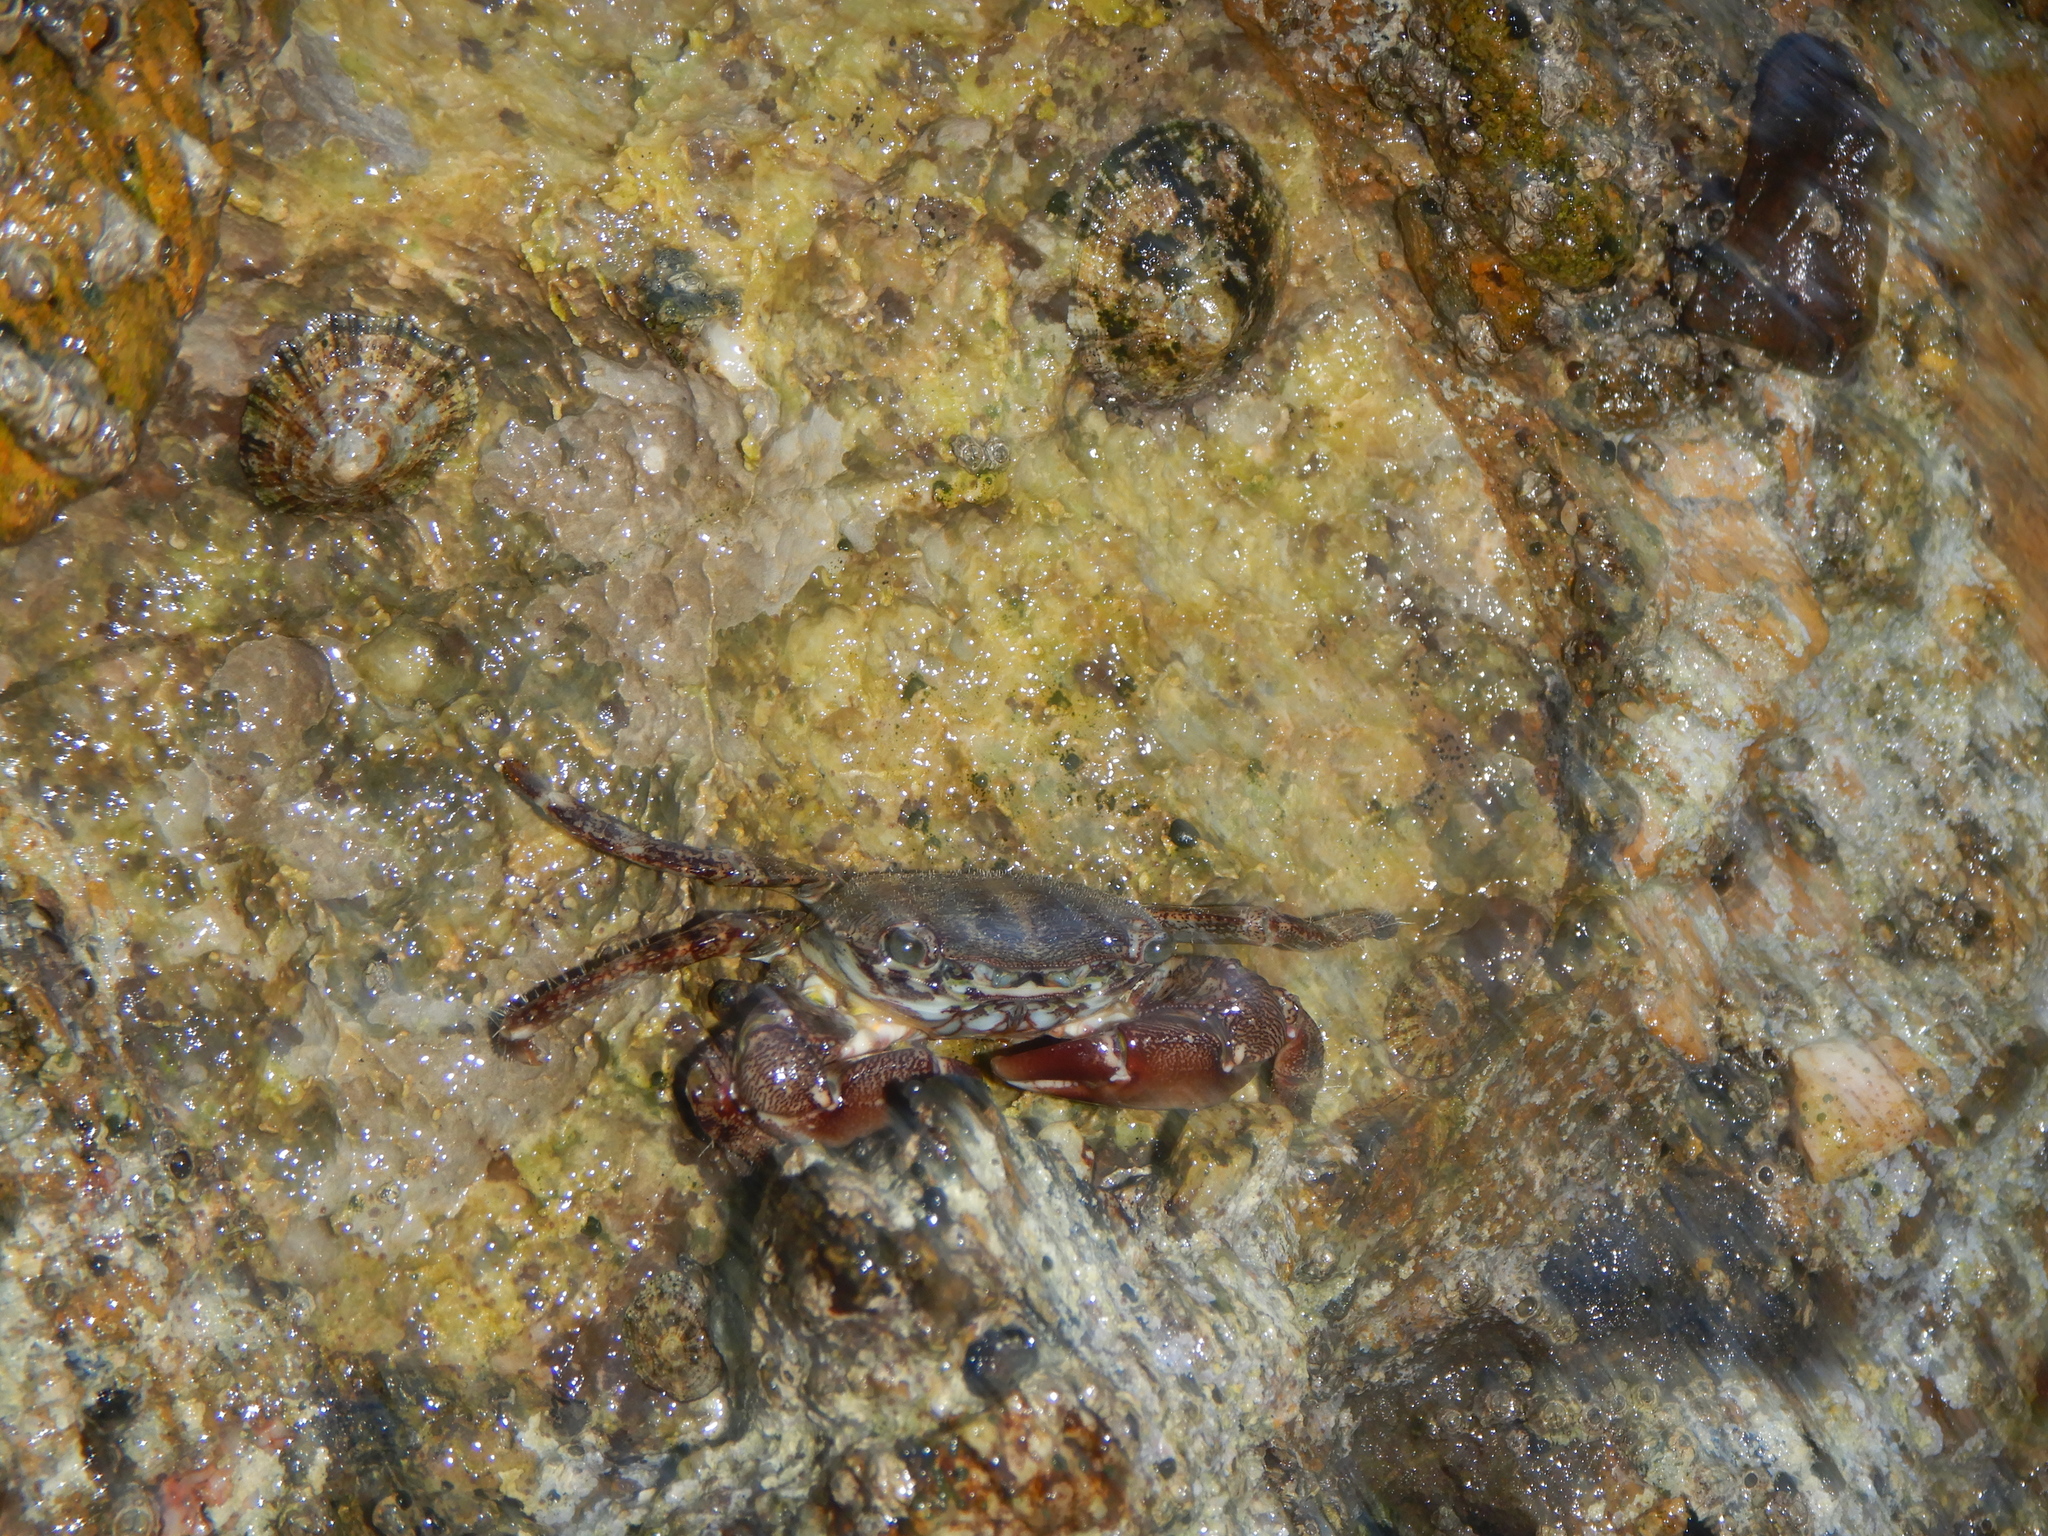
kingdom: Animalia
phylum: Arthropoda
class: Malacostraca
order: Decapoda
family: Grapsidae
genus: Pachygrapsus
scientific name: Pachygrapsus marmoratus
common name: Marbled rock crab
